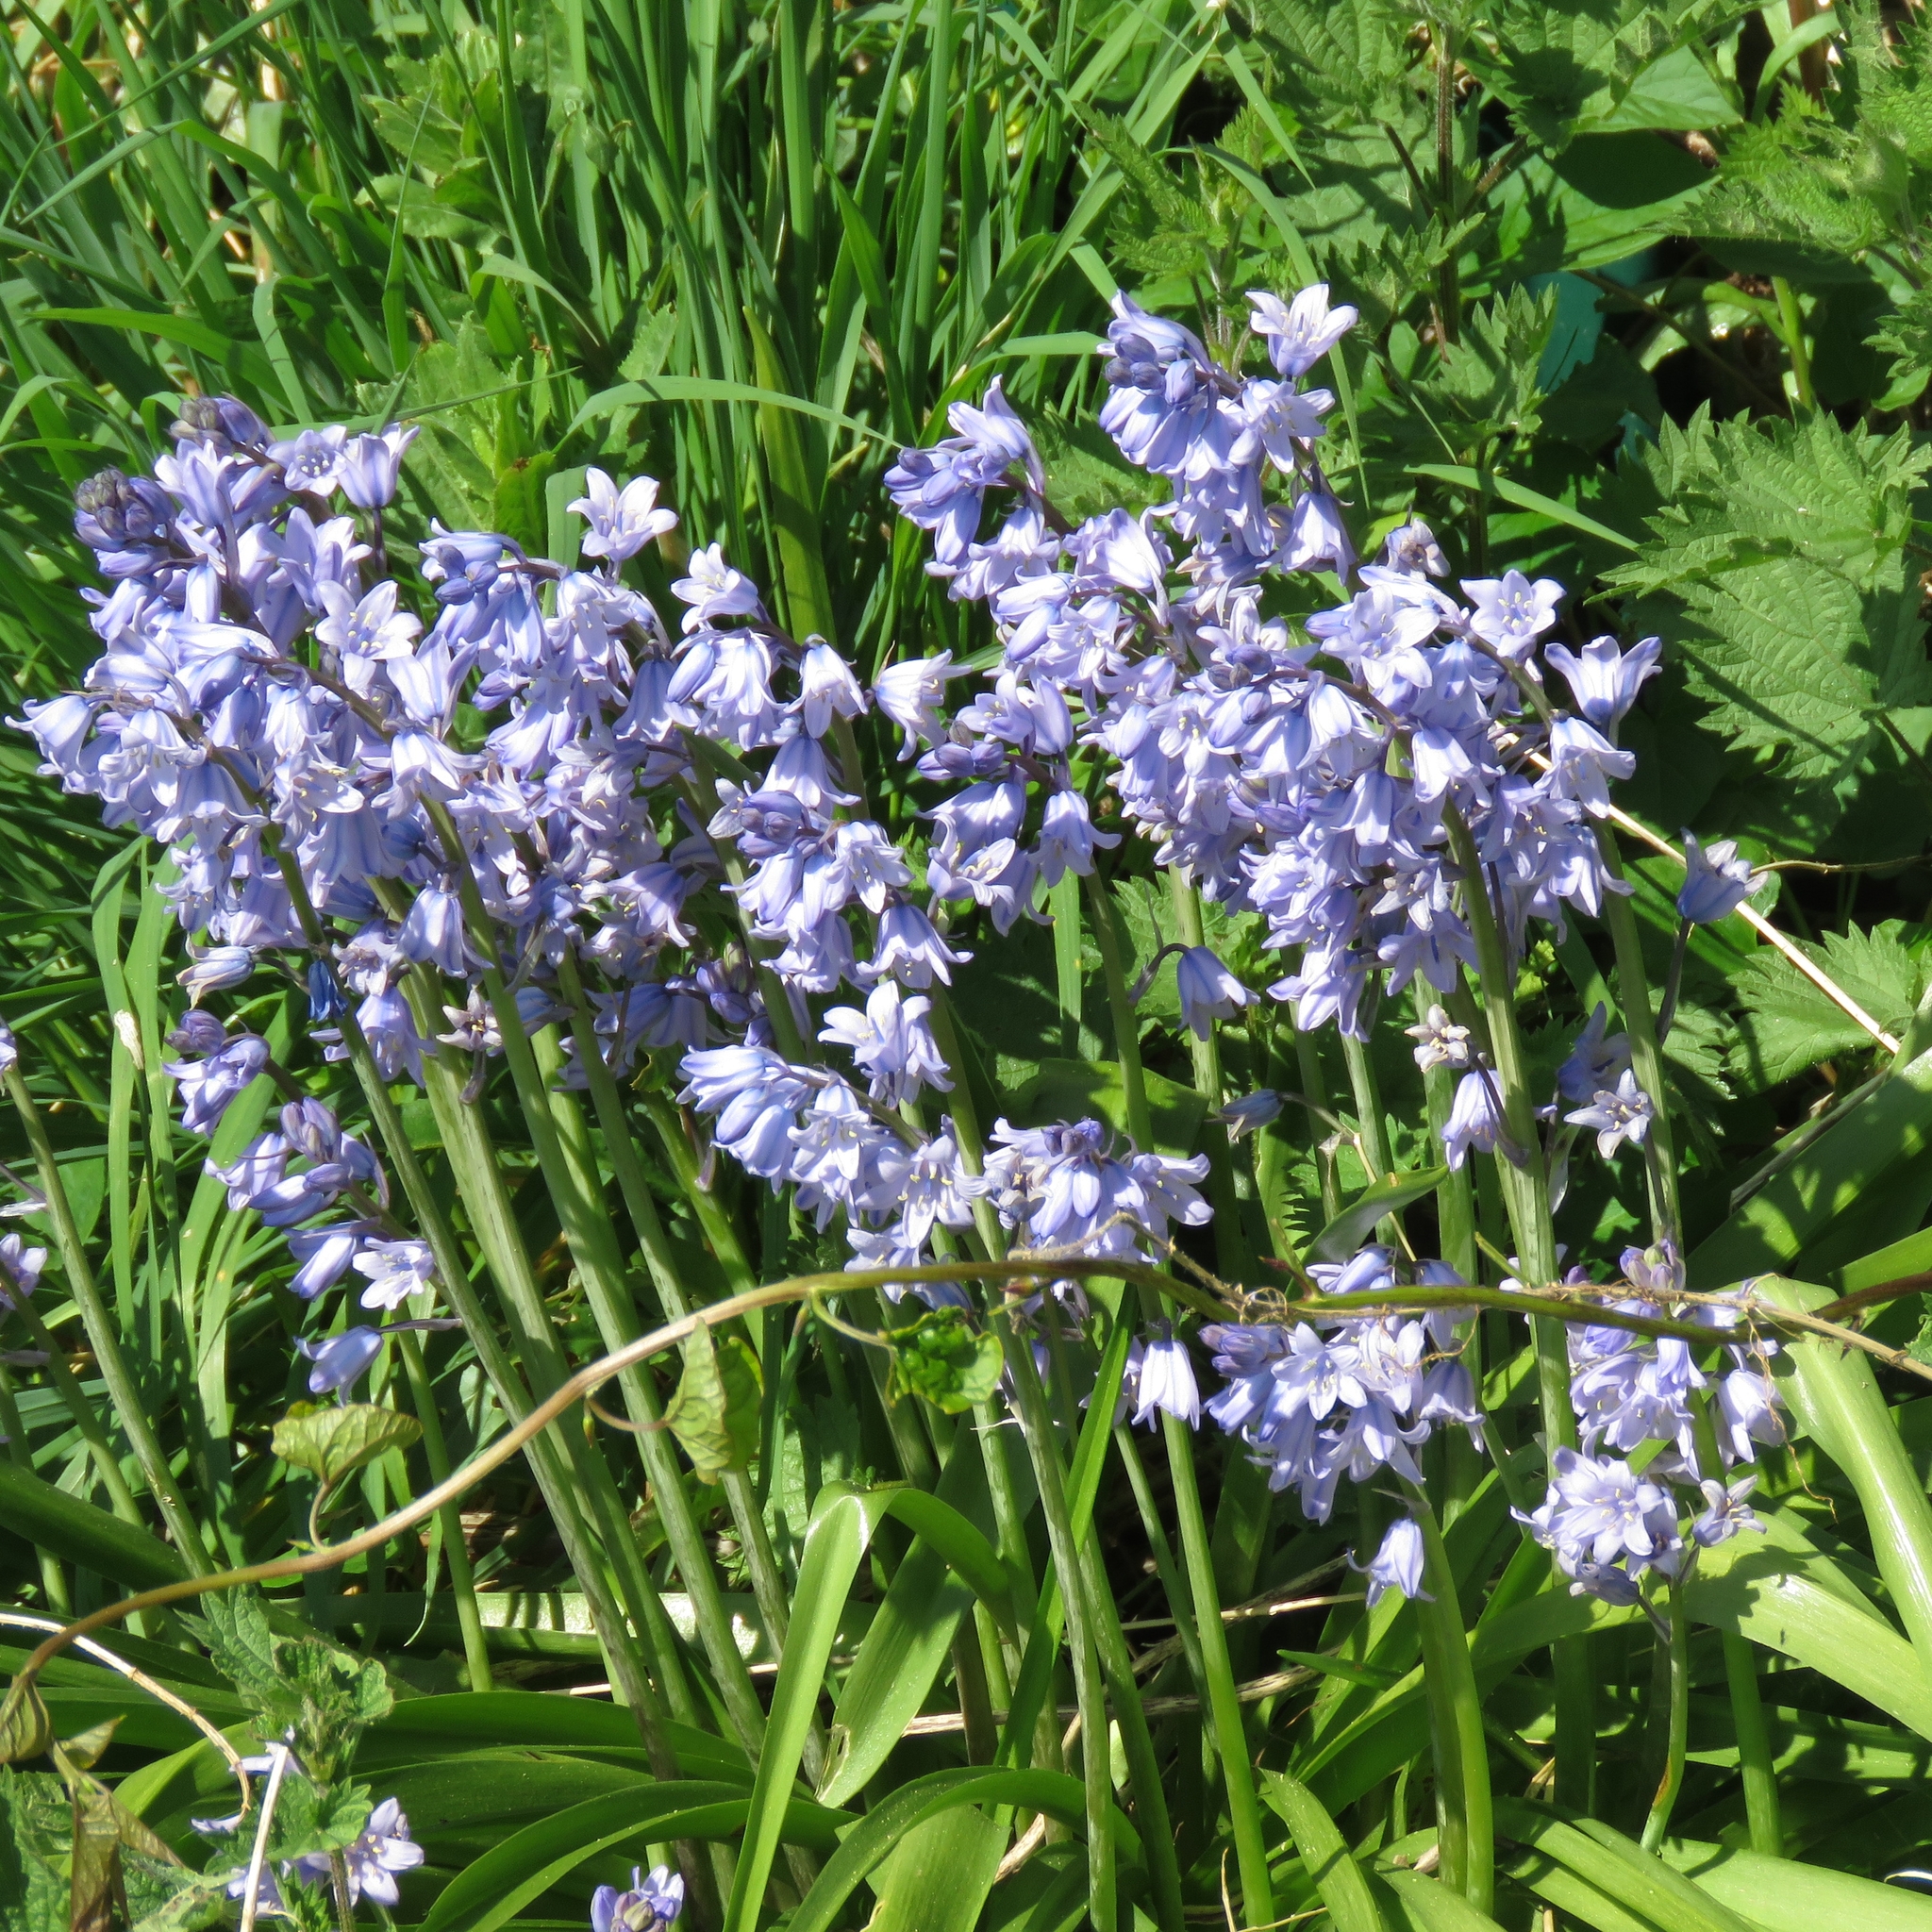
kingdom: Plantae
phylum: Tracheophyta
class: Liliopsida
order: Asparagales
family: Asparagaceae
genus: Hyacinthoides
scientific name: Hyacinthoides hispanica
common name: Spanish bluebell
